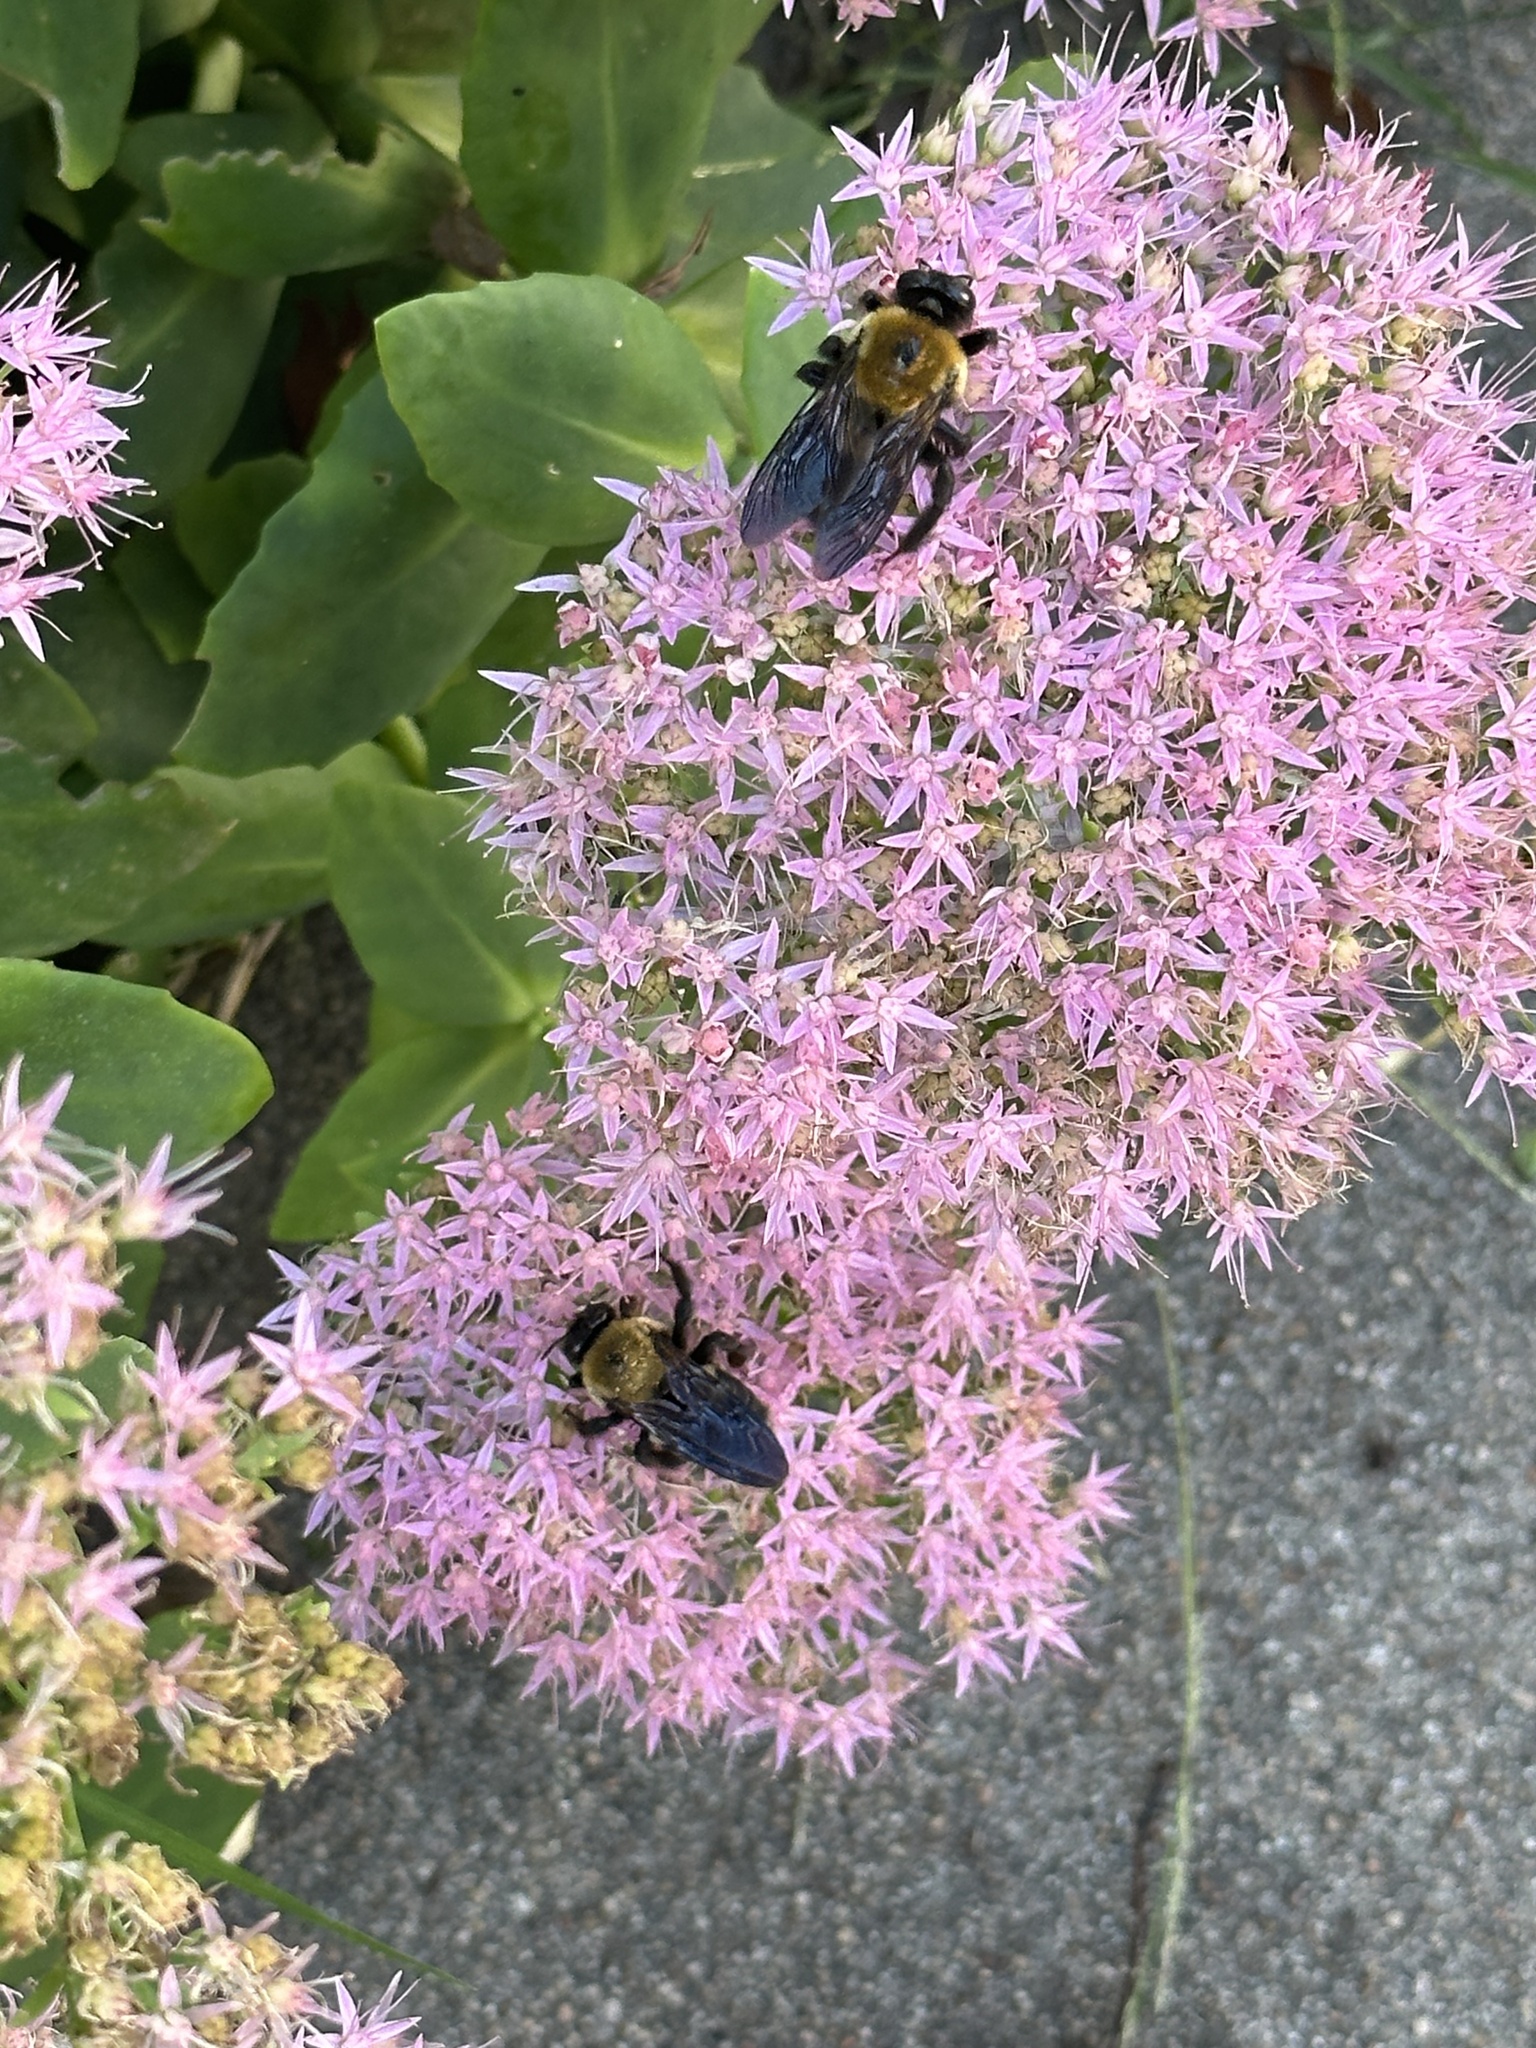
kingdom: Animalia
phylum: Arthropoda
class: Insecta
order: Hymenoptera
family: Apidae
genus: Xylocopa
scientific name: Xylocopa virginica
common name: Carpenter bee
